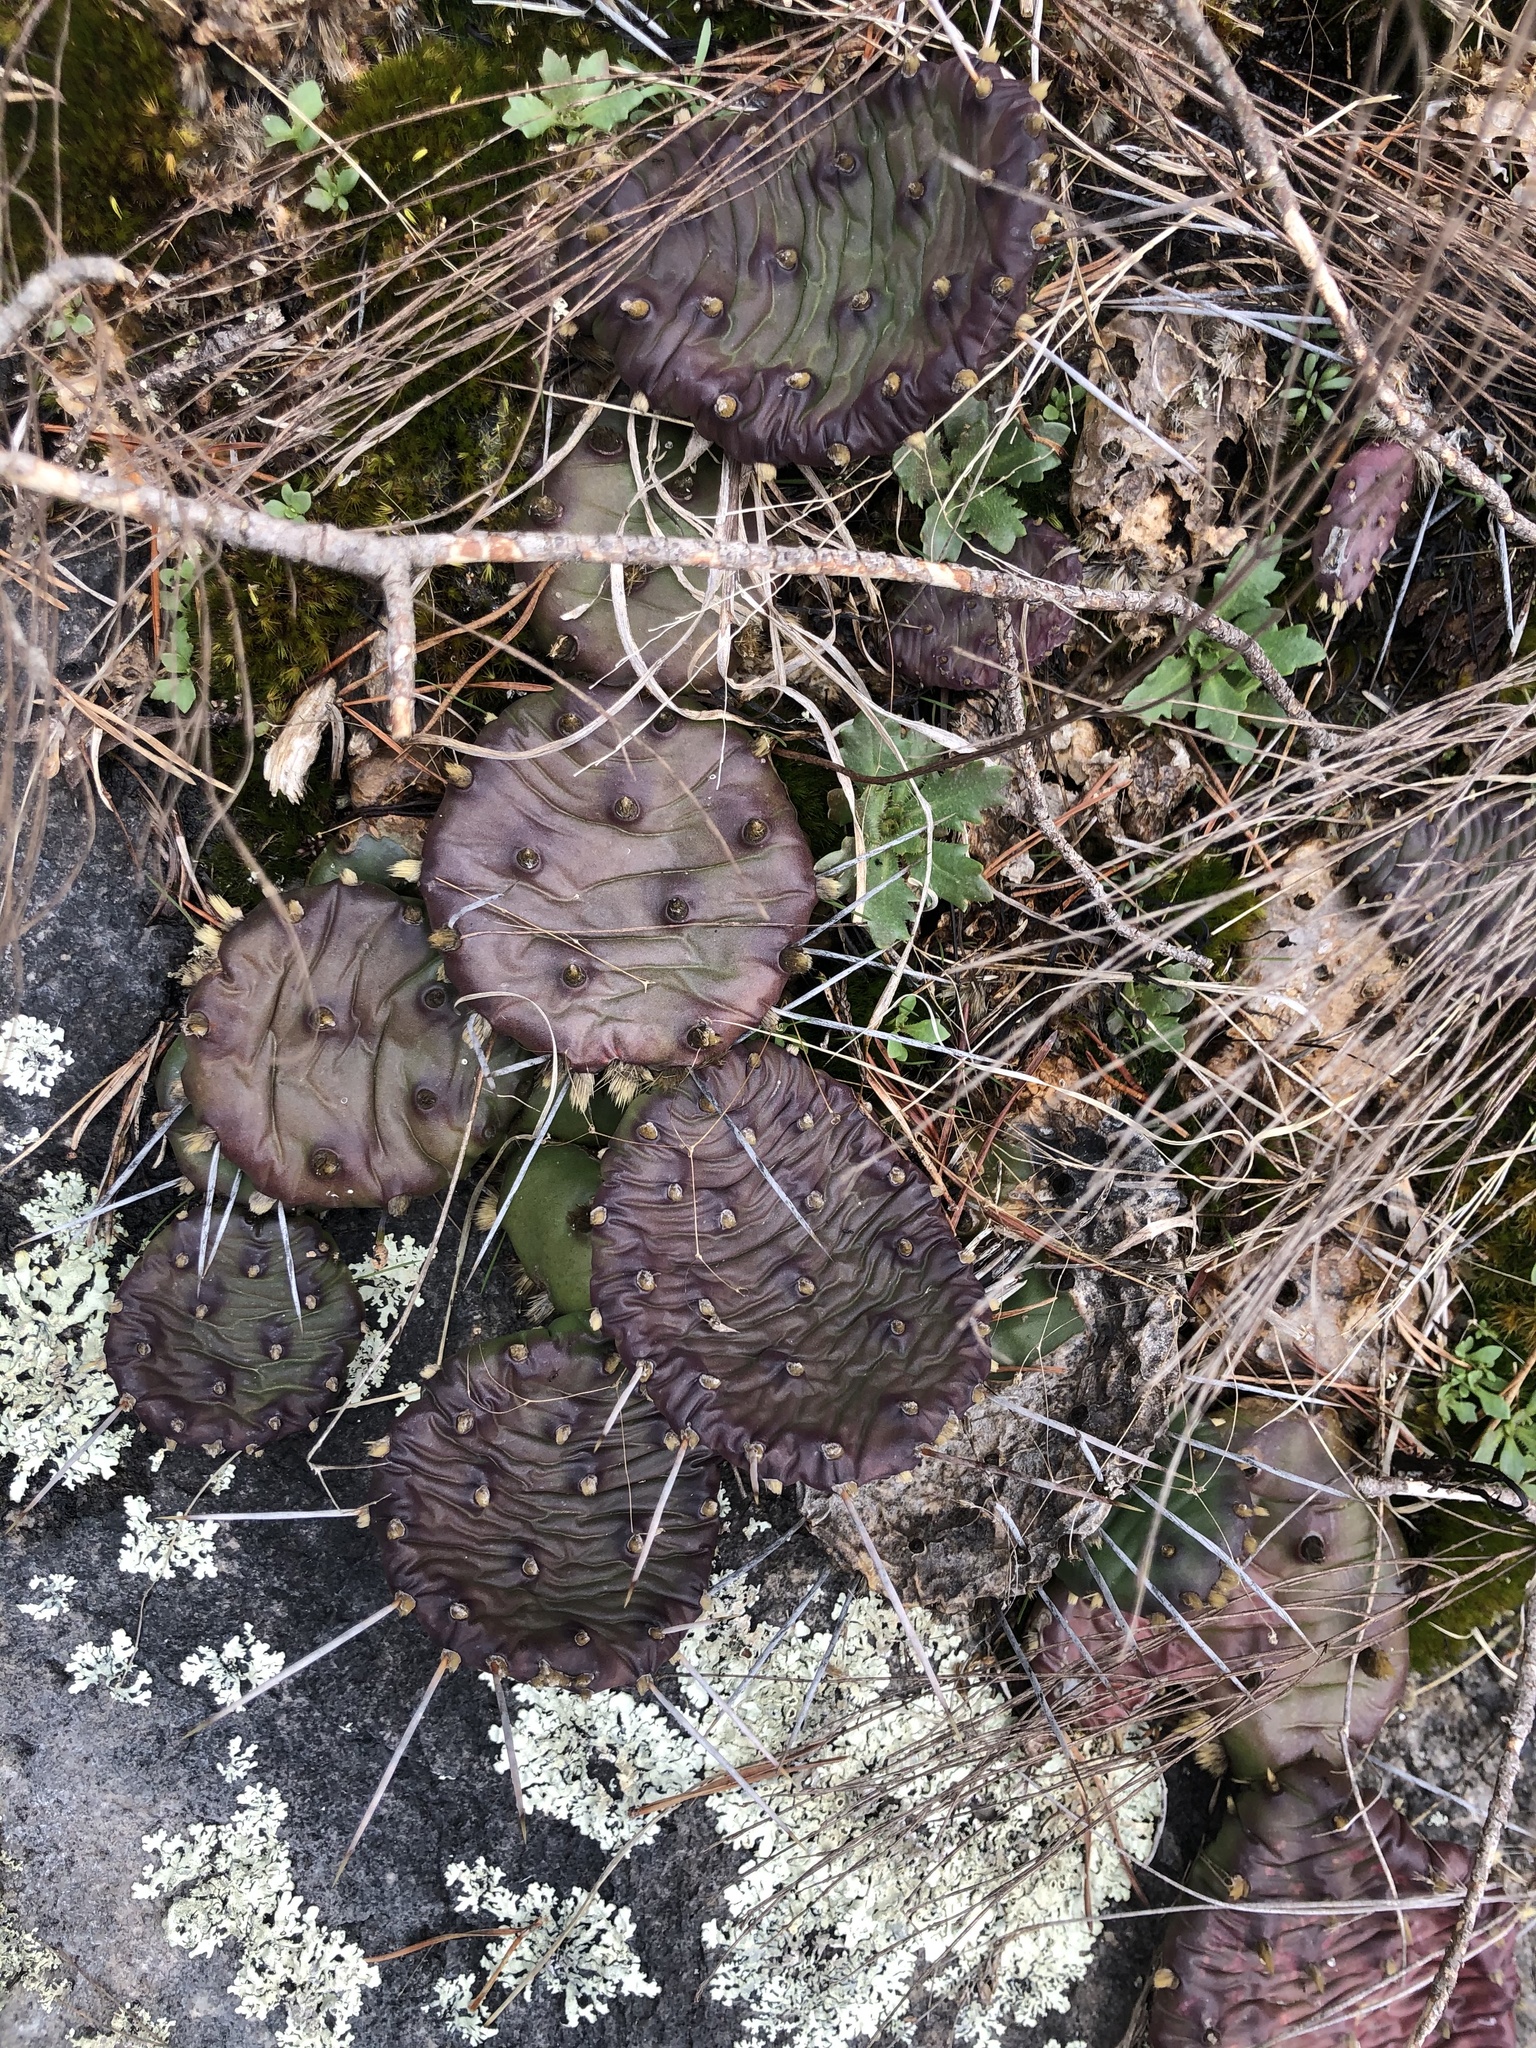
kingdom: Plantae
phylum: Tracheophyta
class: Magnoliopsida
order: Caryophyllales
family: Cactaceae
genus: Opuntia
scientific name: Opuntia mesacantha
